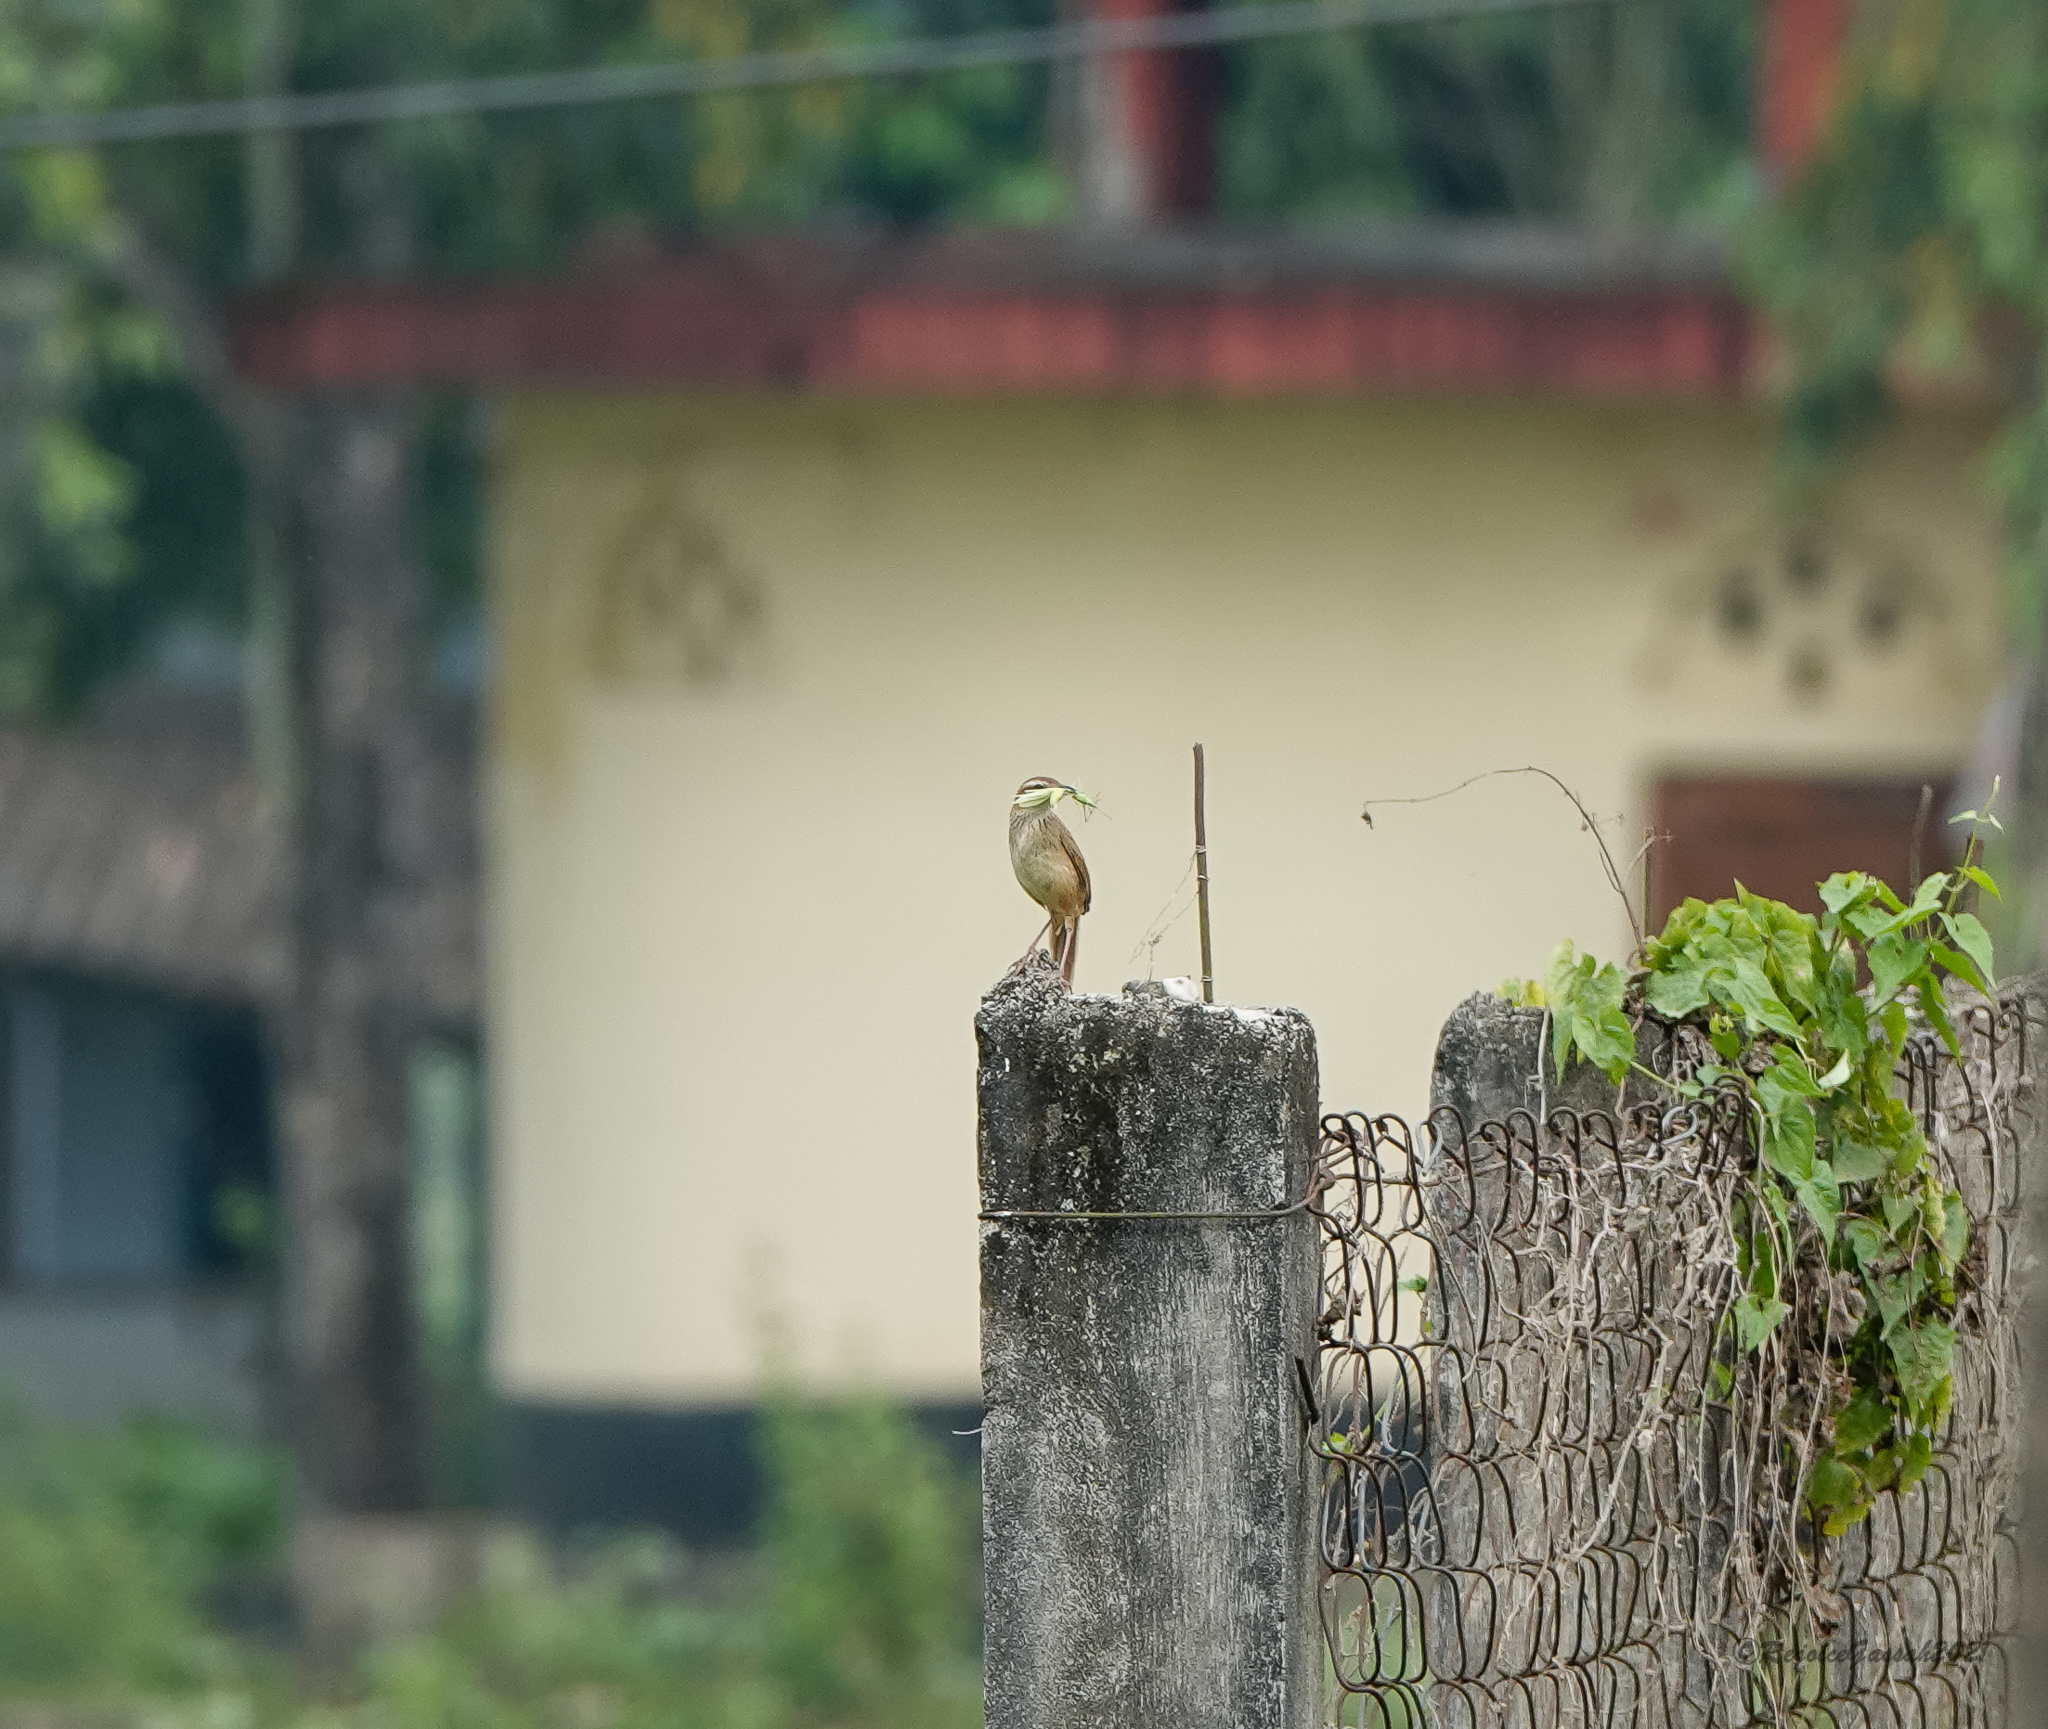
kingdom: Animalia
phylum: Chordata
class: Aves
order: Passeriformes
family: Locustellidae
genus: Megalurus
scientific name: Megalurus palustris
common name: Striated grassbird
